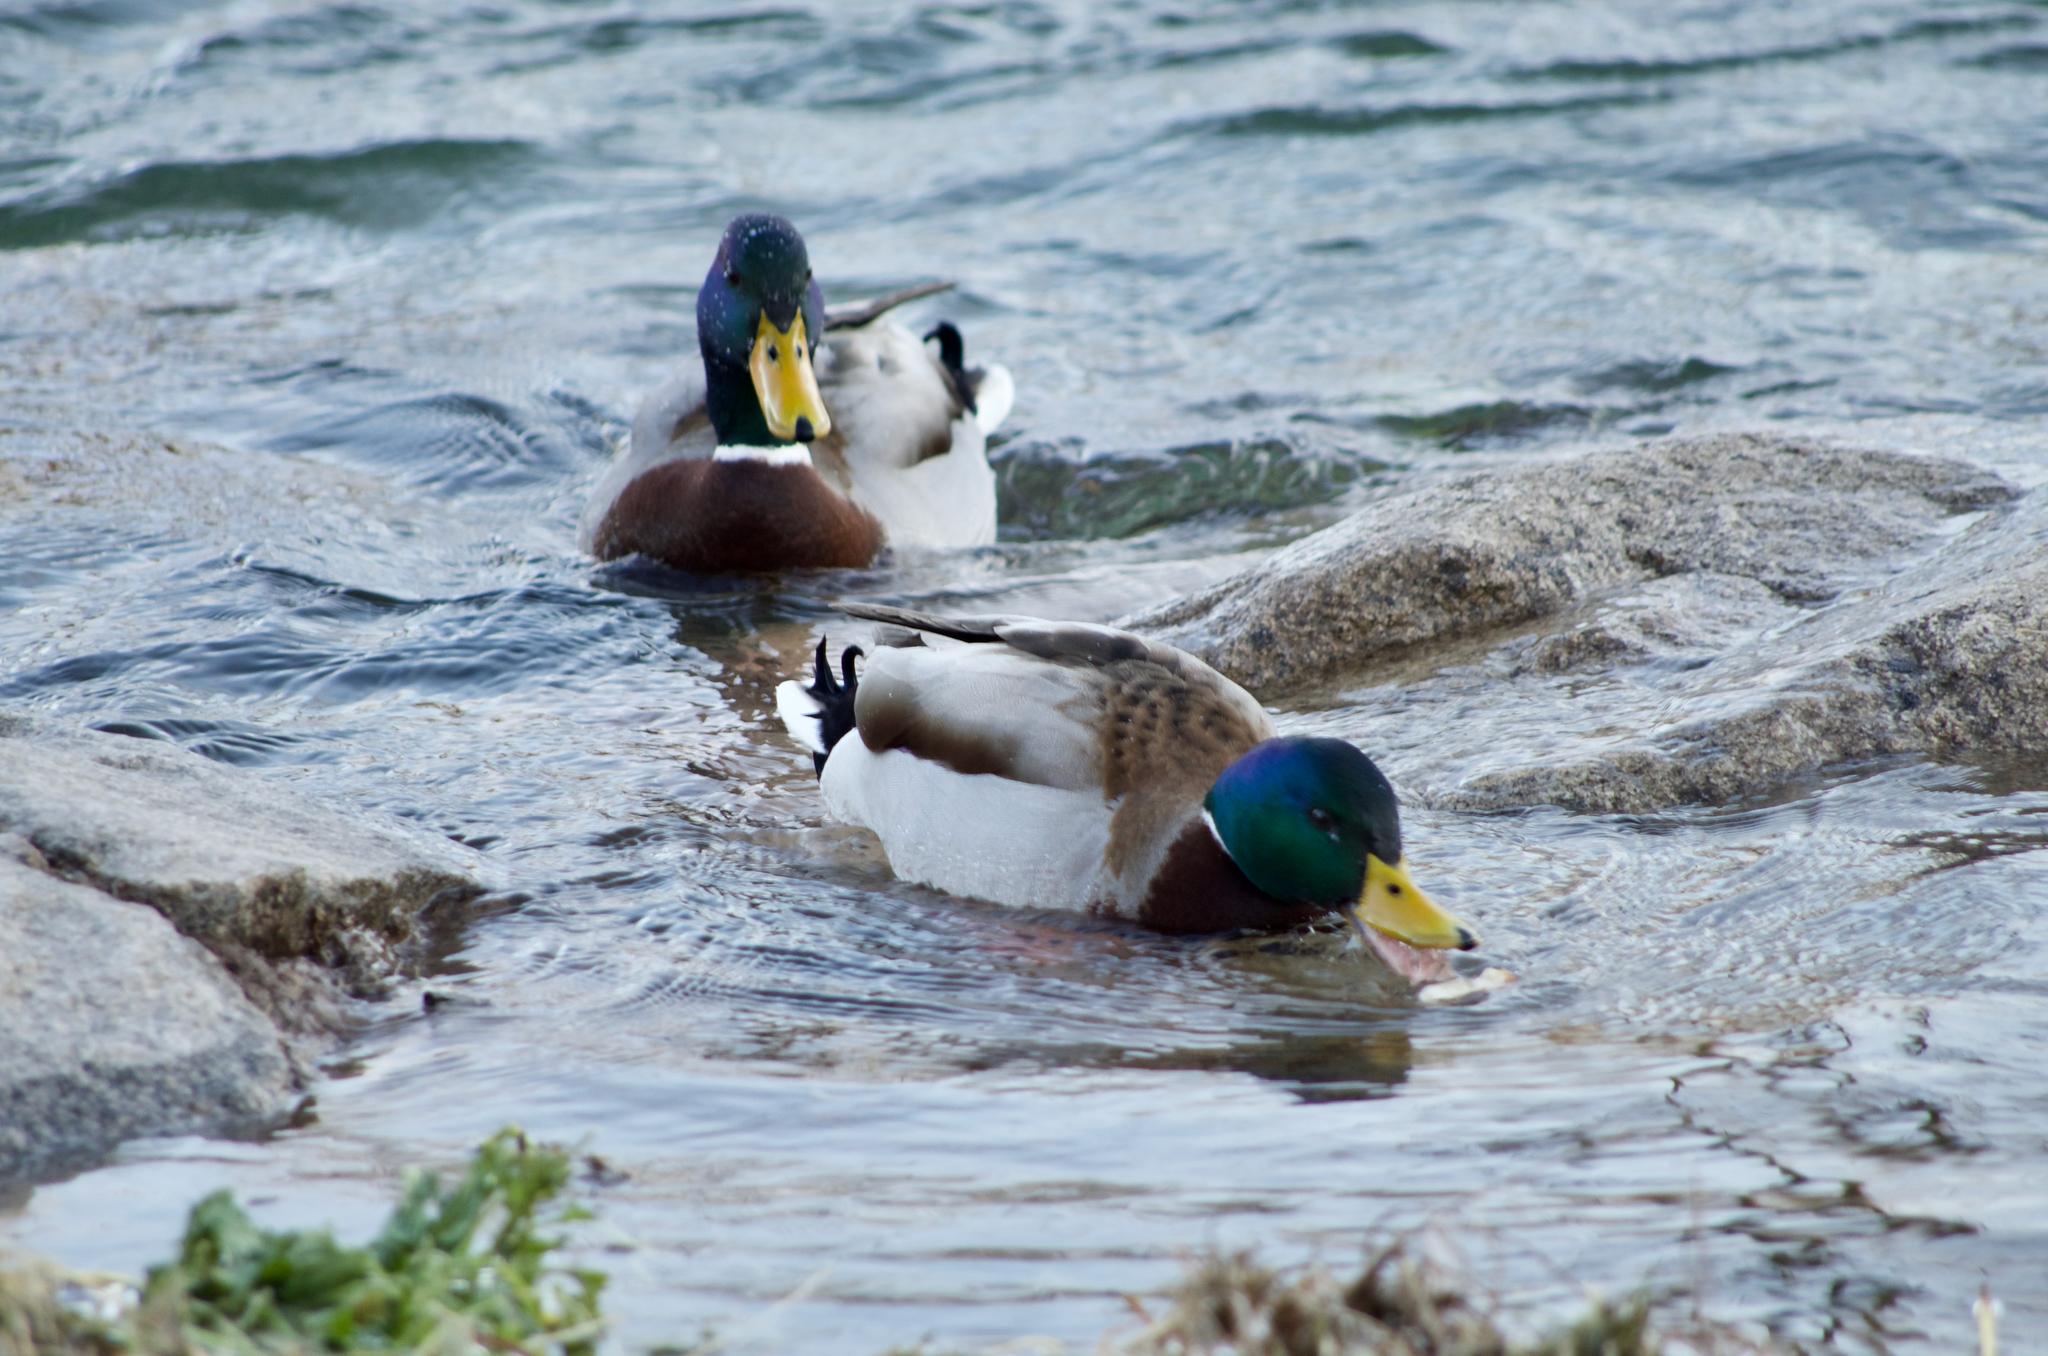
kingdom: Animalia
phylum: Chordata
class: Aves
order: Anseriformes
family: Anatidae
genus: Anas
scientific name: Anas platyrhynchos
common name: Mallard
